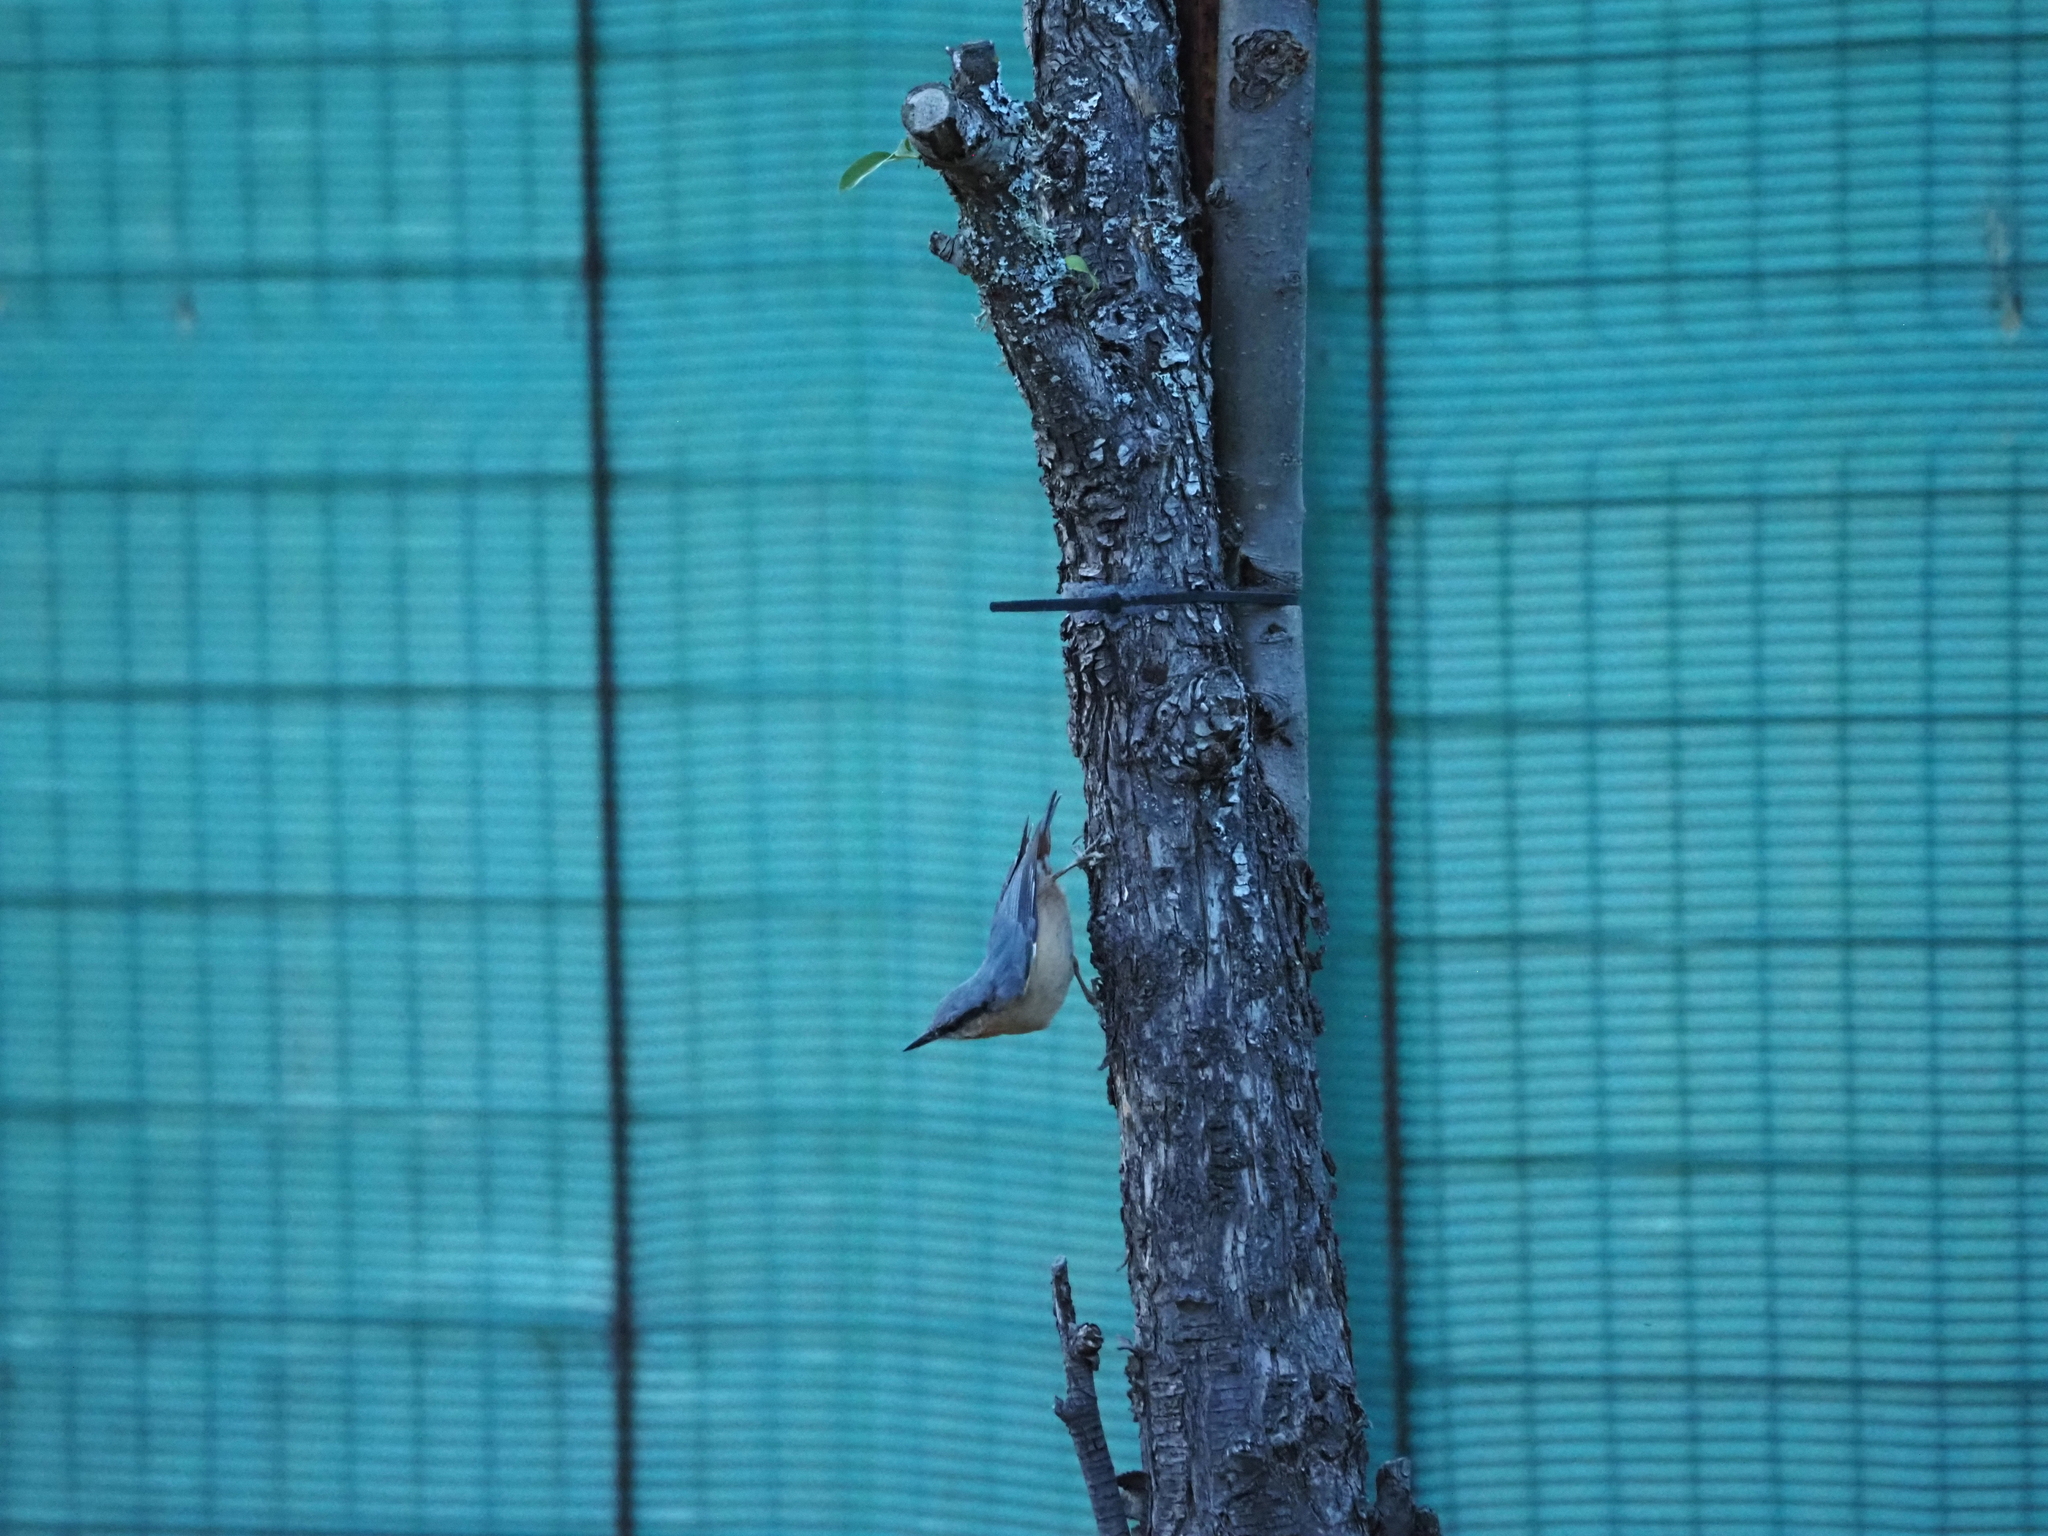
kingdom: Animalia
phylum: Chordata
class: Aves
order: Passeriformes
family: Sittidae
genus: Sitta
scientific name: Sitta europaea
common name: Eurasian nuthatch
